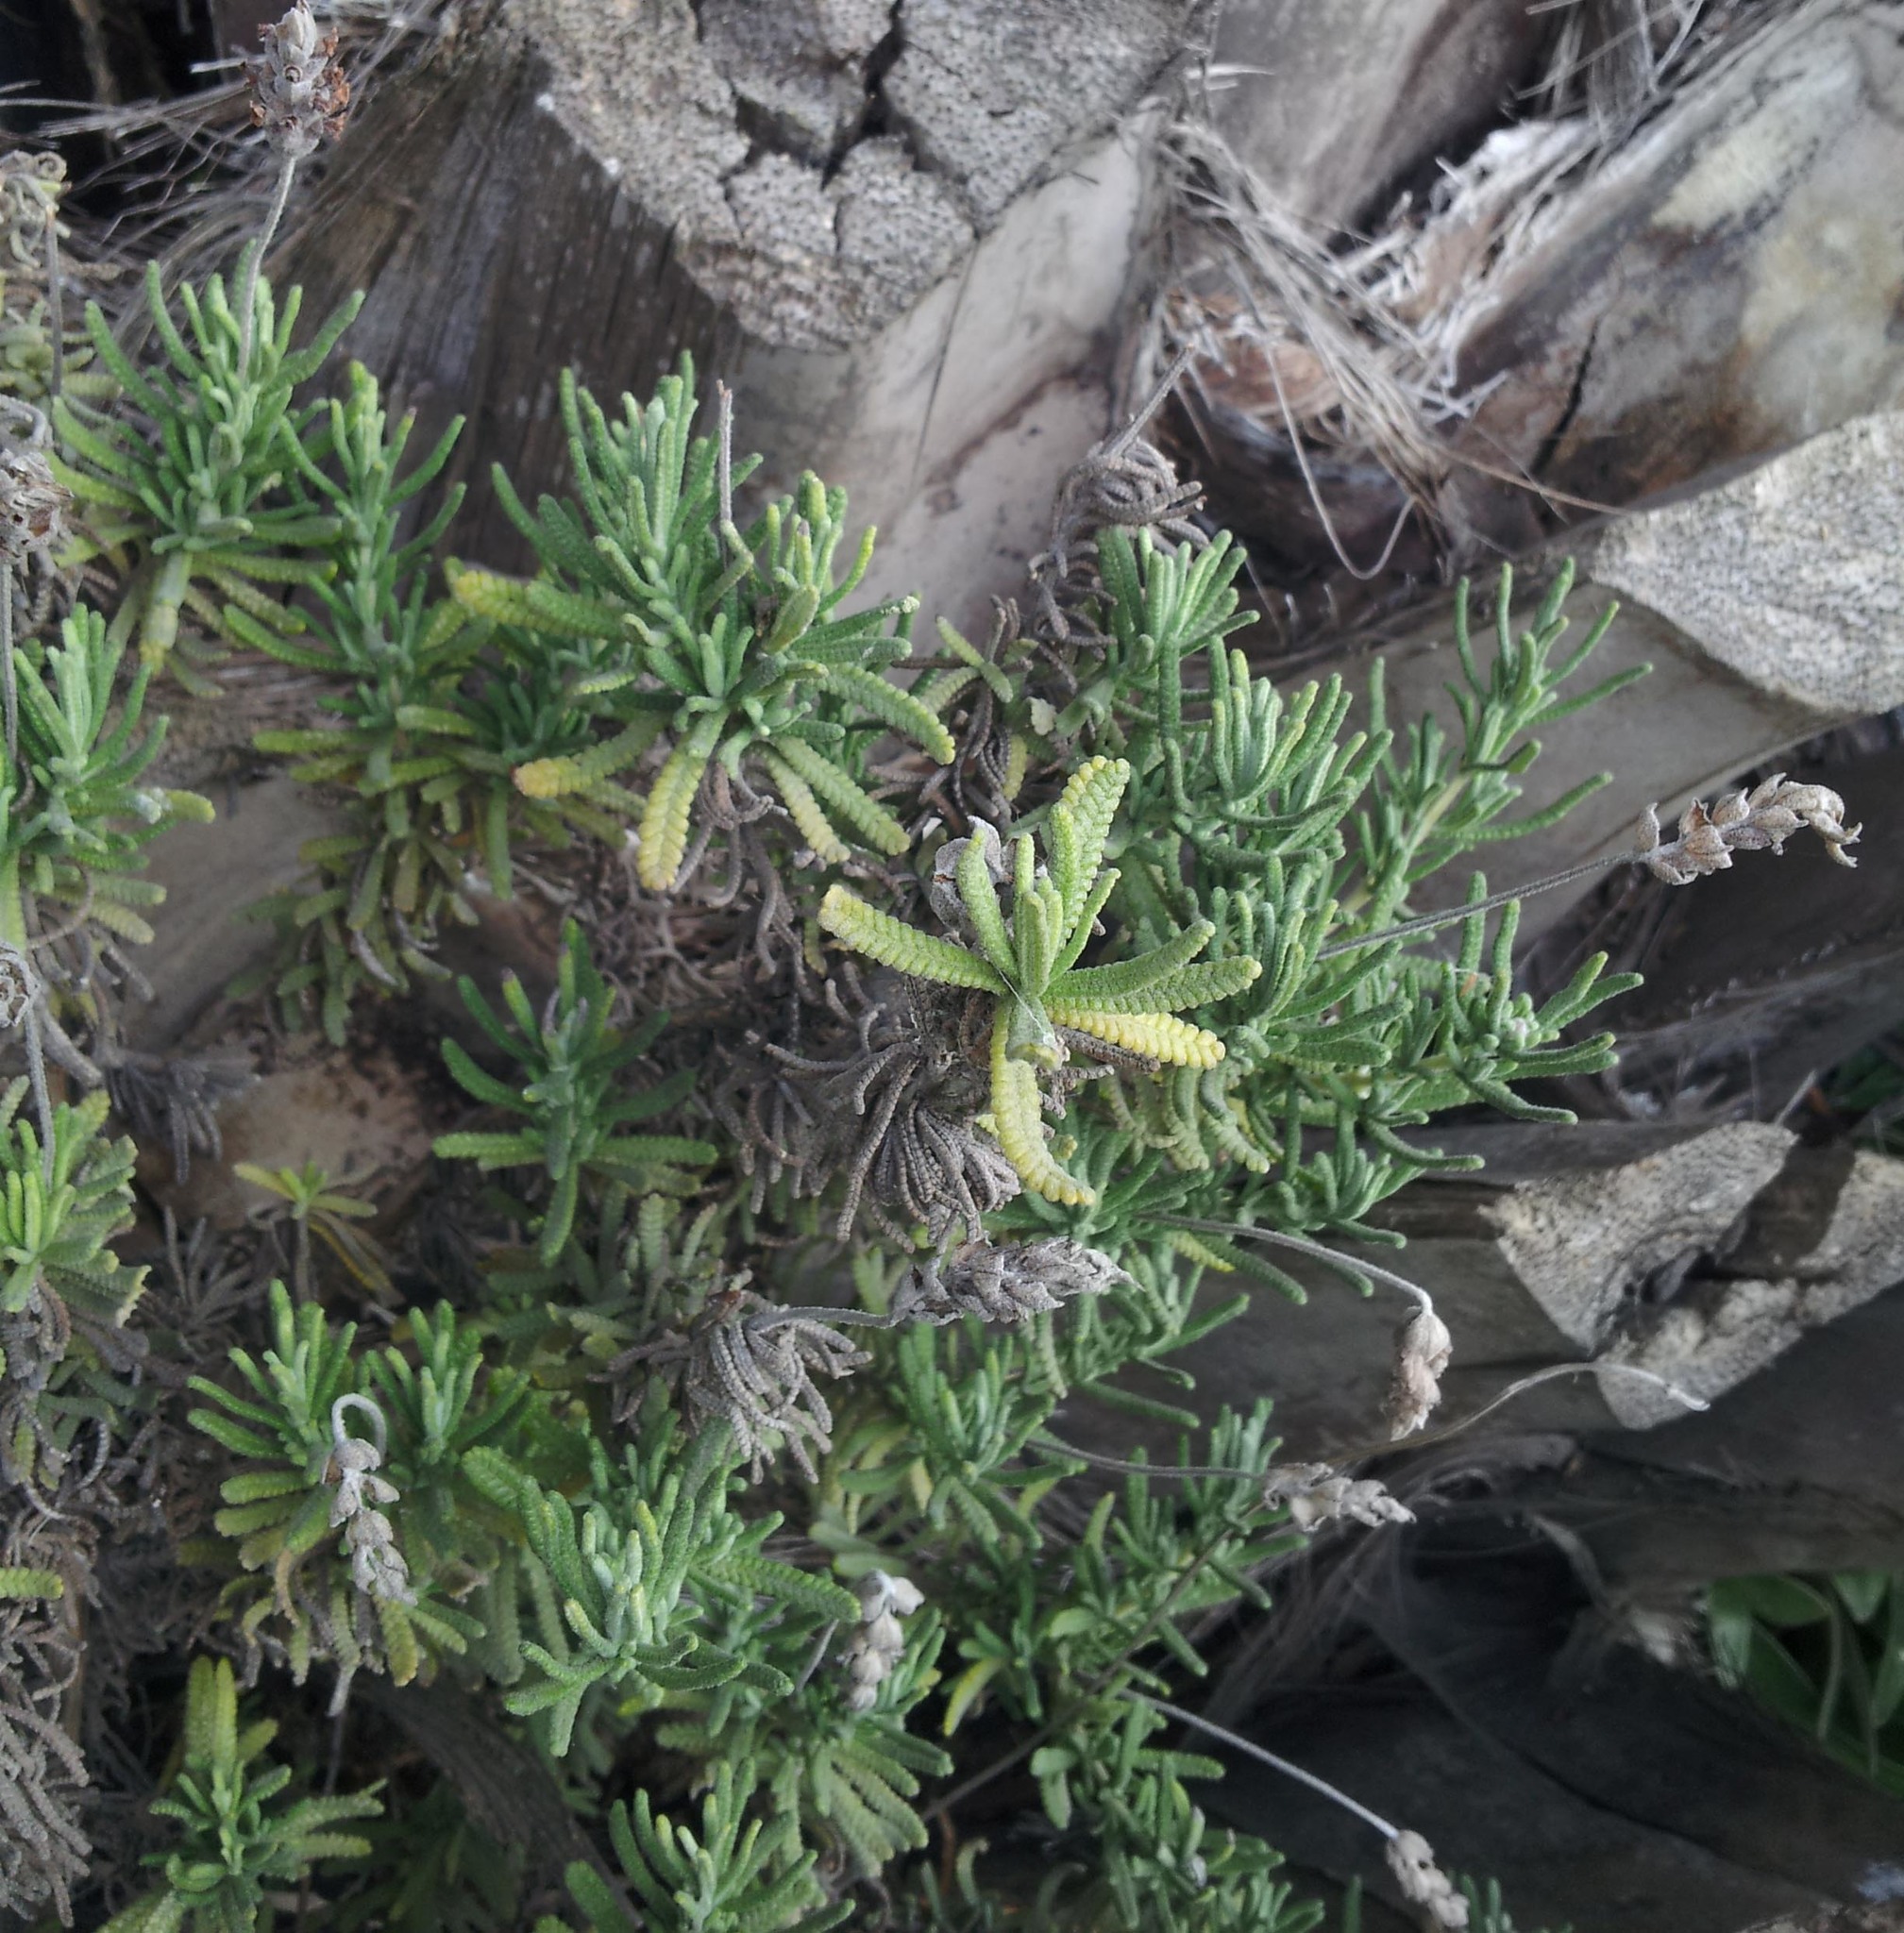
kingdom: Plantae
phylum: Tracheophyta
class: Magnoliopsida
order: Lamiales
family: Lamiaceae
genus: Lavandula
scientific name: Lavandula dentata
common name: French lavender
